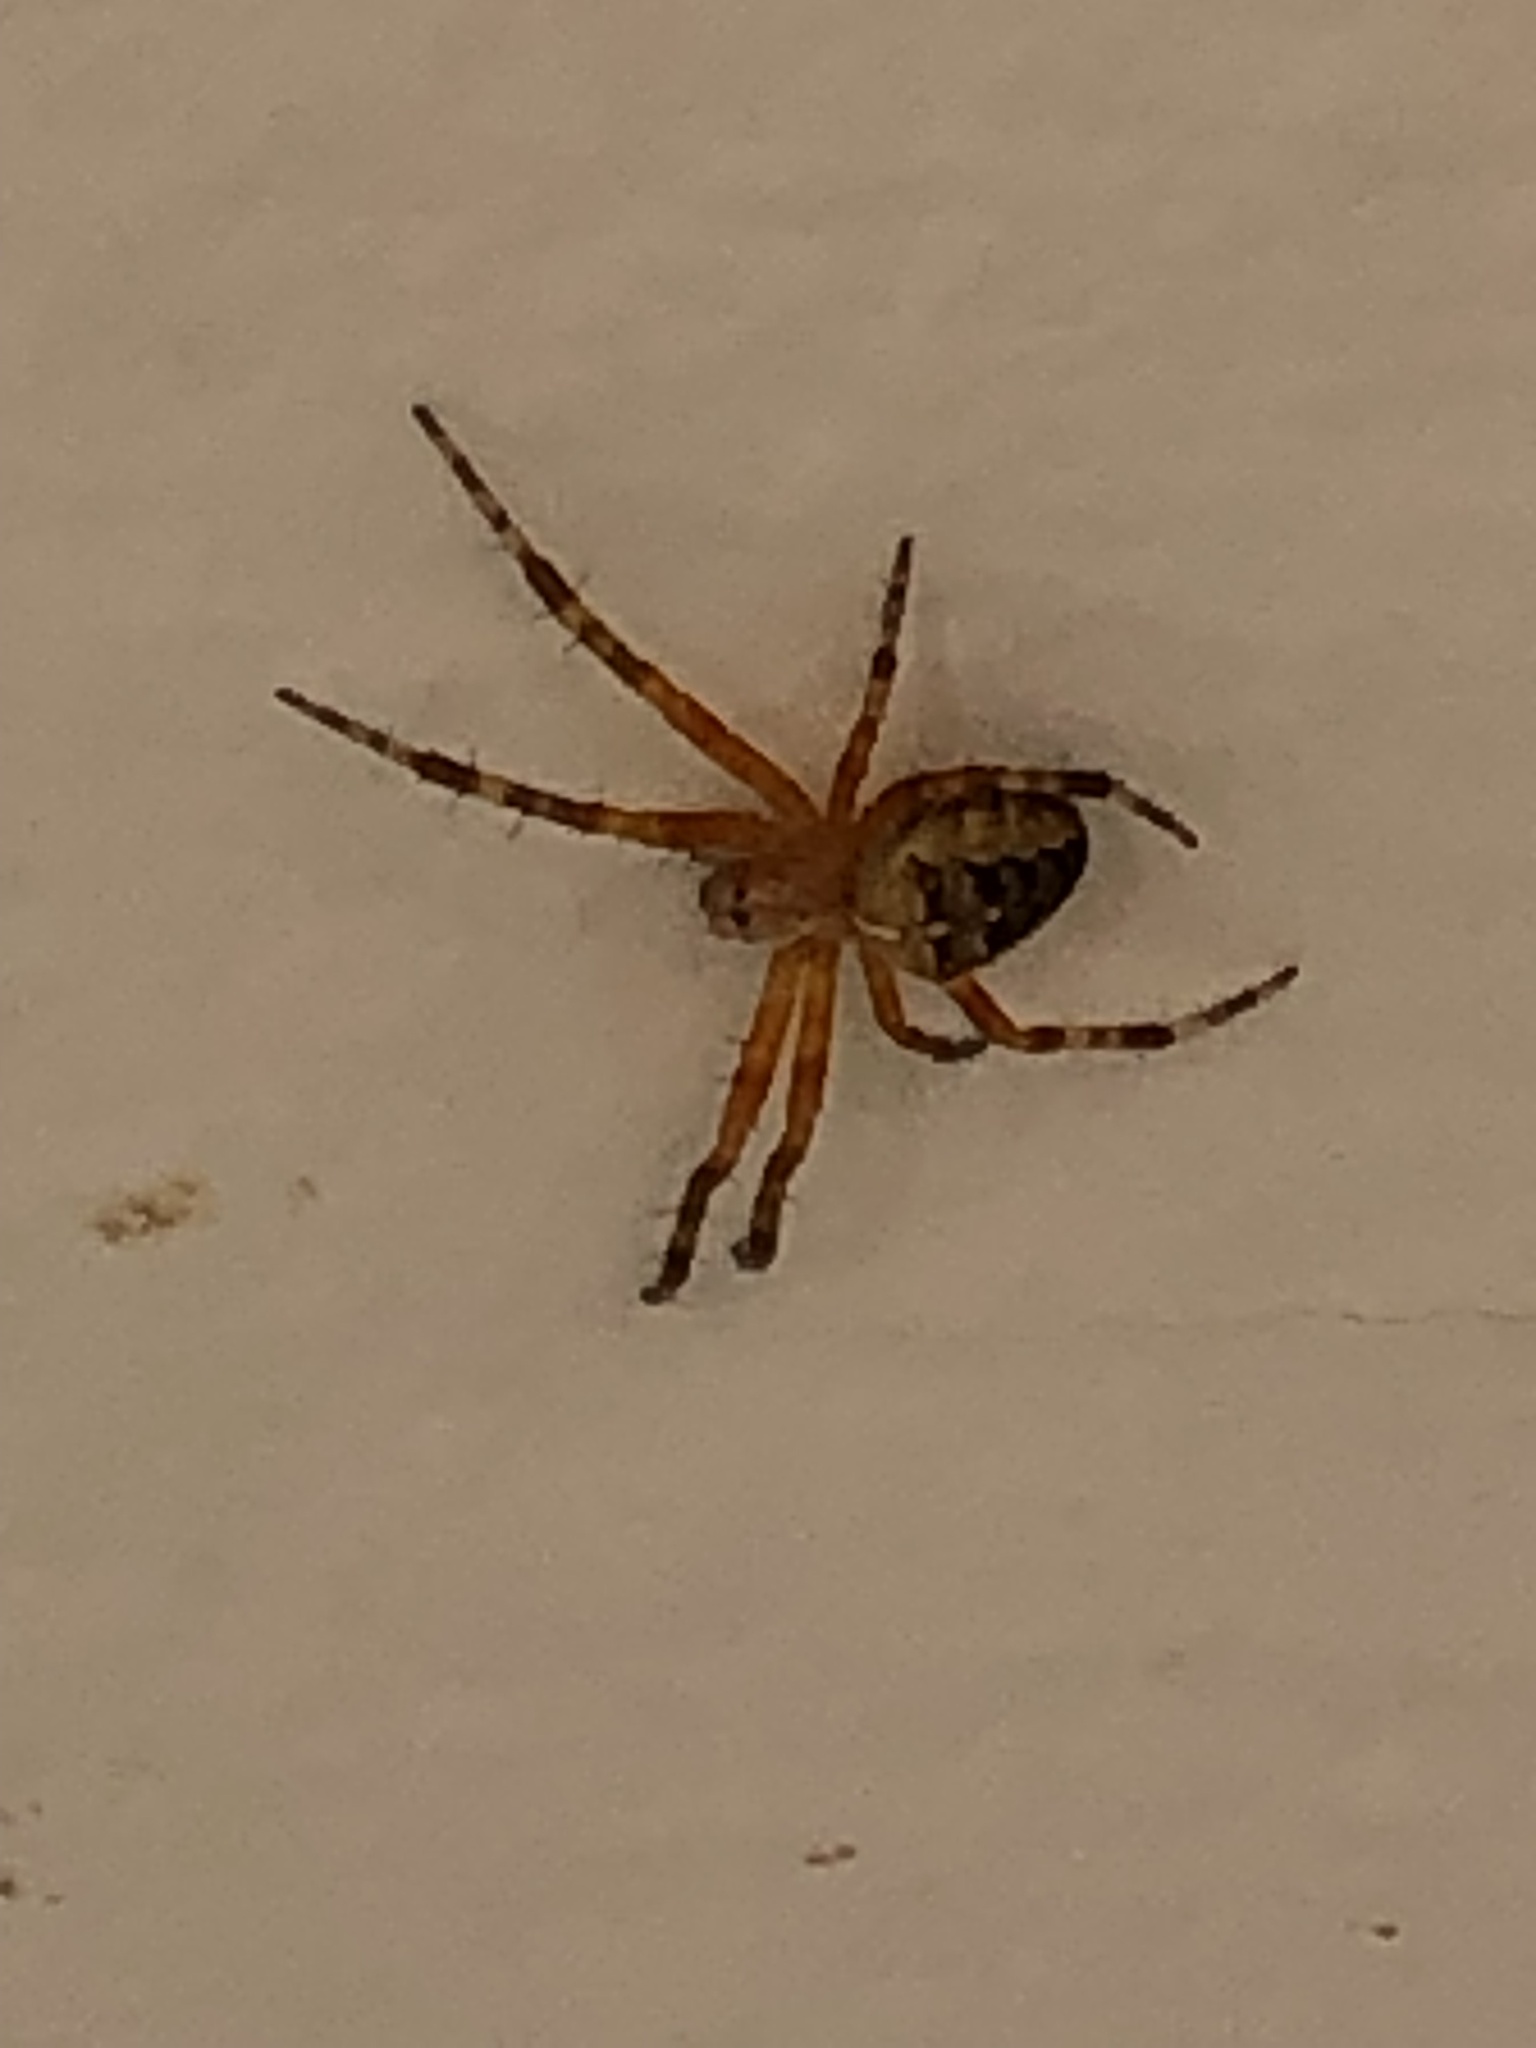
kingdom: Animalia
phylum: Arthropoda
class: Arachnida
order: Araneae
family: Araneidae
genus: Araneus
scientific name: Araneus diadematus
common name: Cross orbweaver
